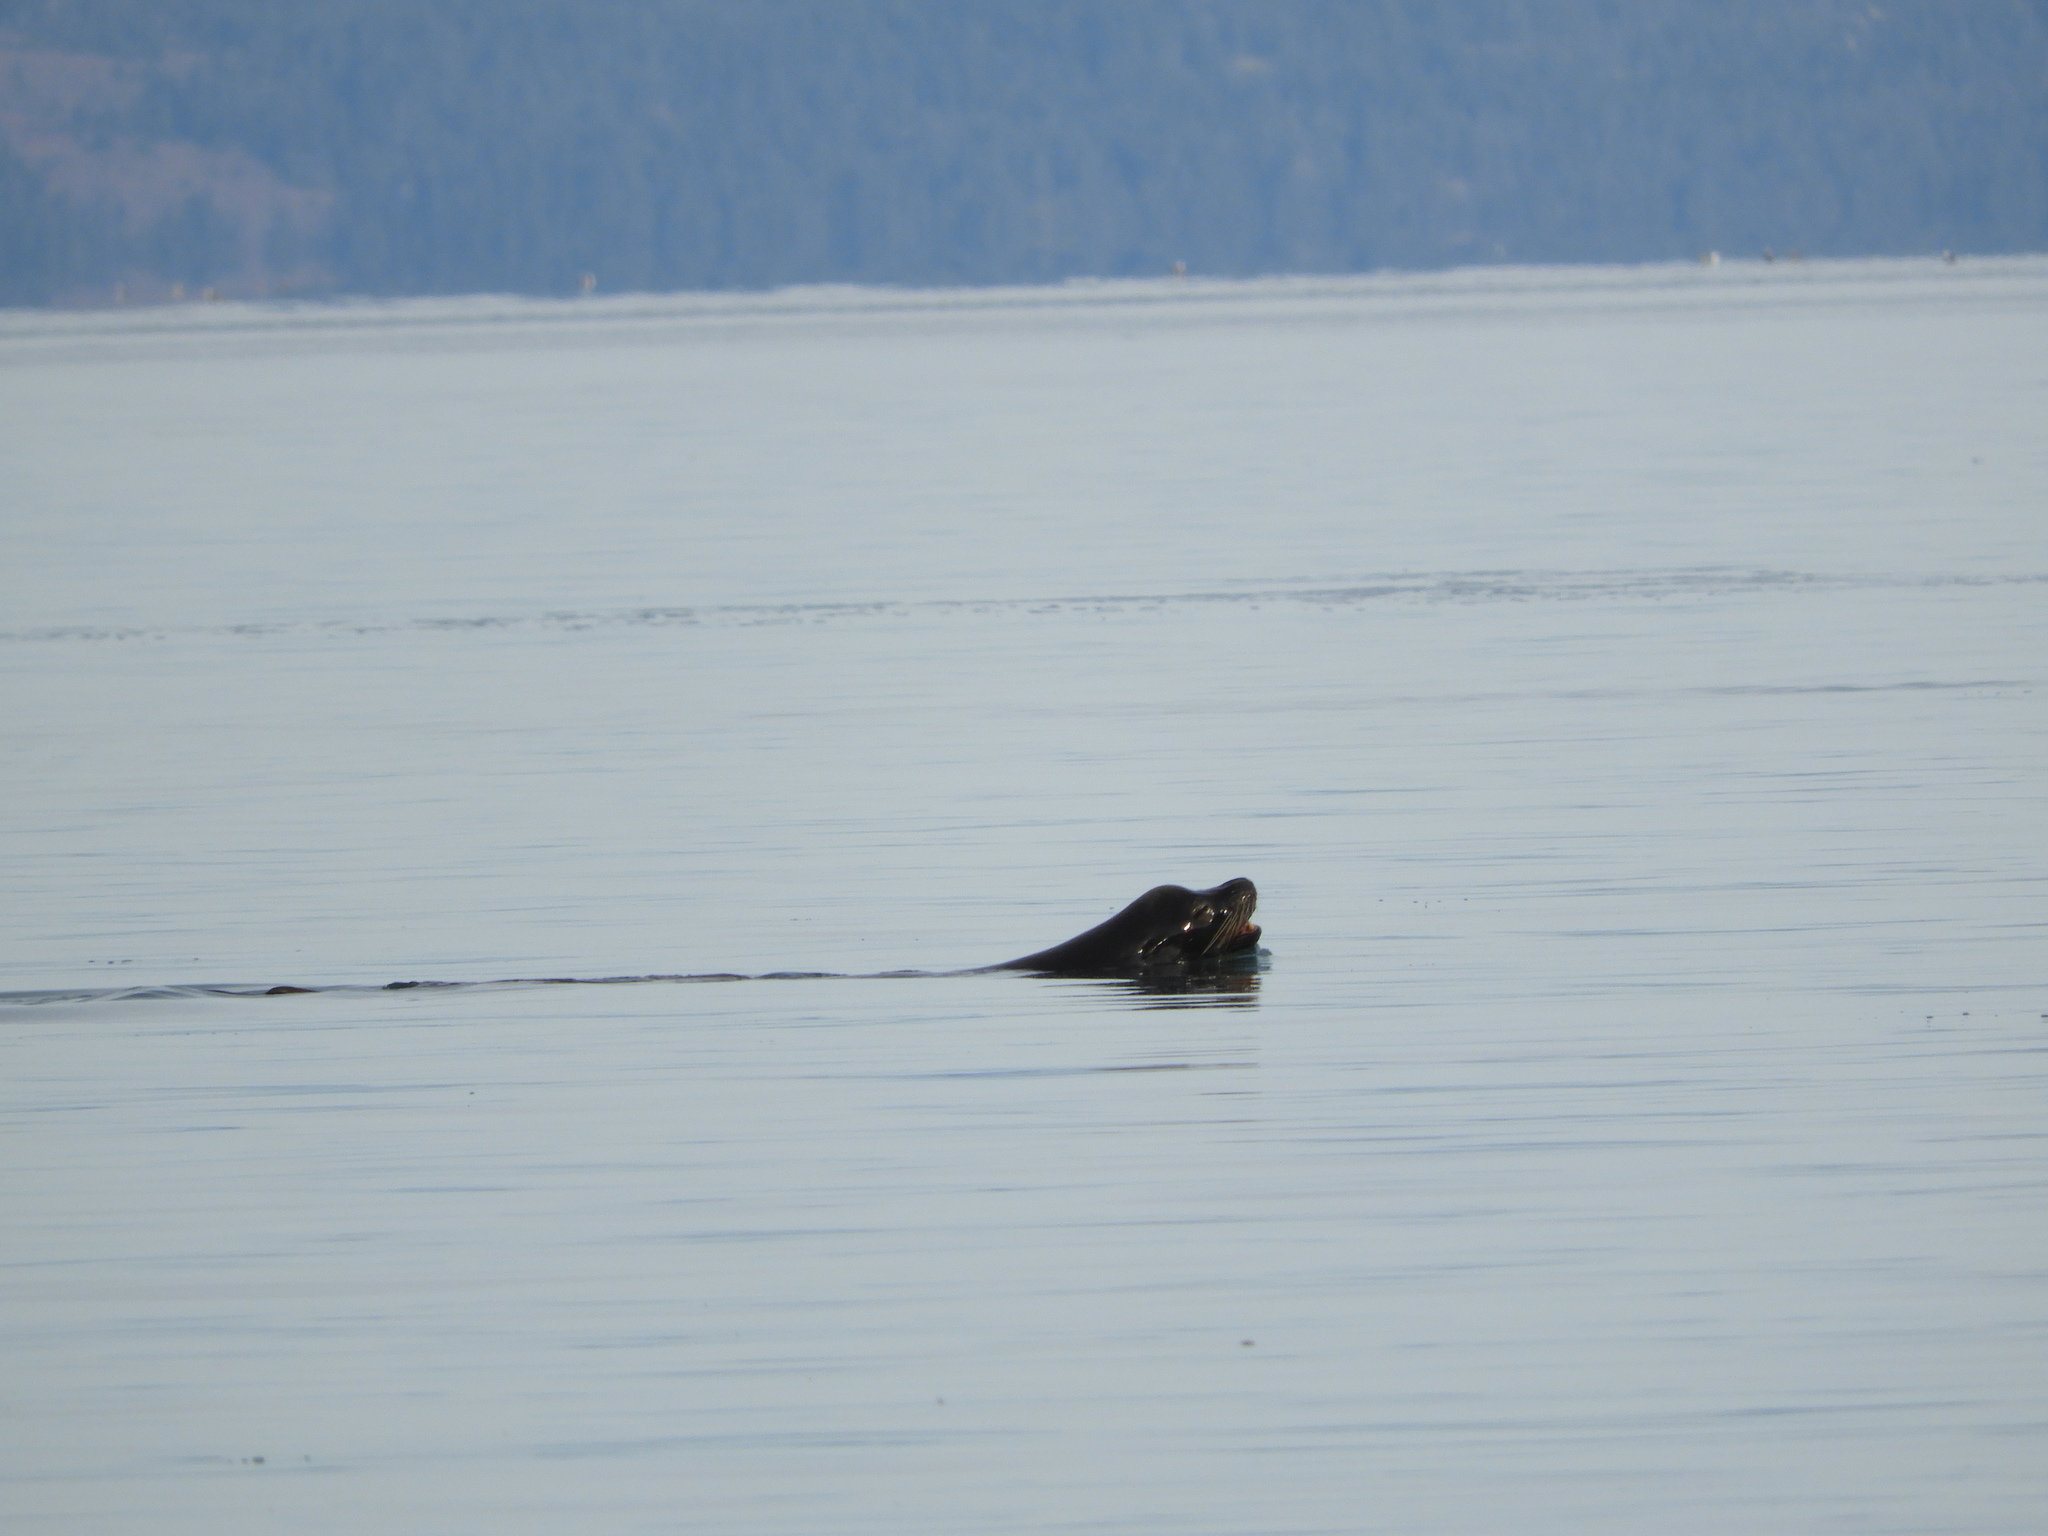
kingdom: Animalia
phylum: Chordata
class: Mammalia
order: Carnivora
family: Otariidae
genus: Zalophus
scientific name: Zalophus californianus
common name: California sea lion
